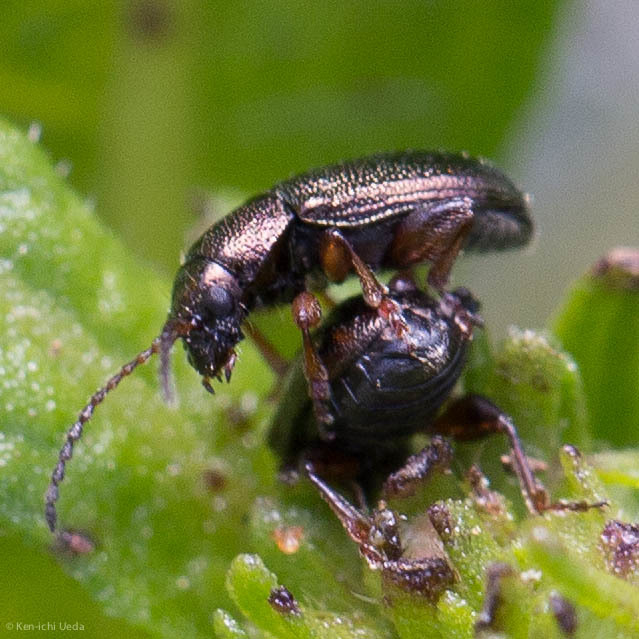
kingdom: Animalia
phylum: Arthropoda
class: Insecta
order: Coleoptera
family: Chrysomelidae
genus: Hemiglyptus
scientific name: Hemiglyptus basalis
